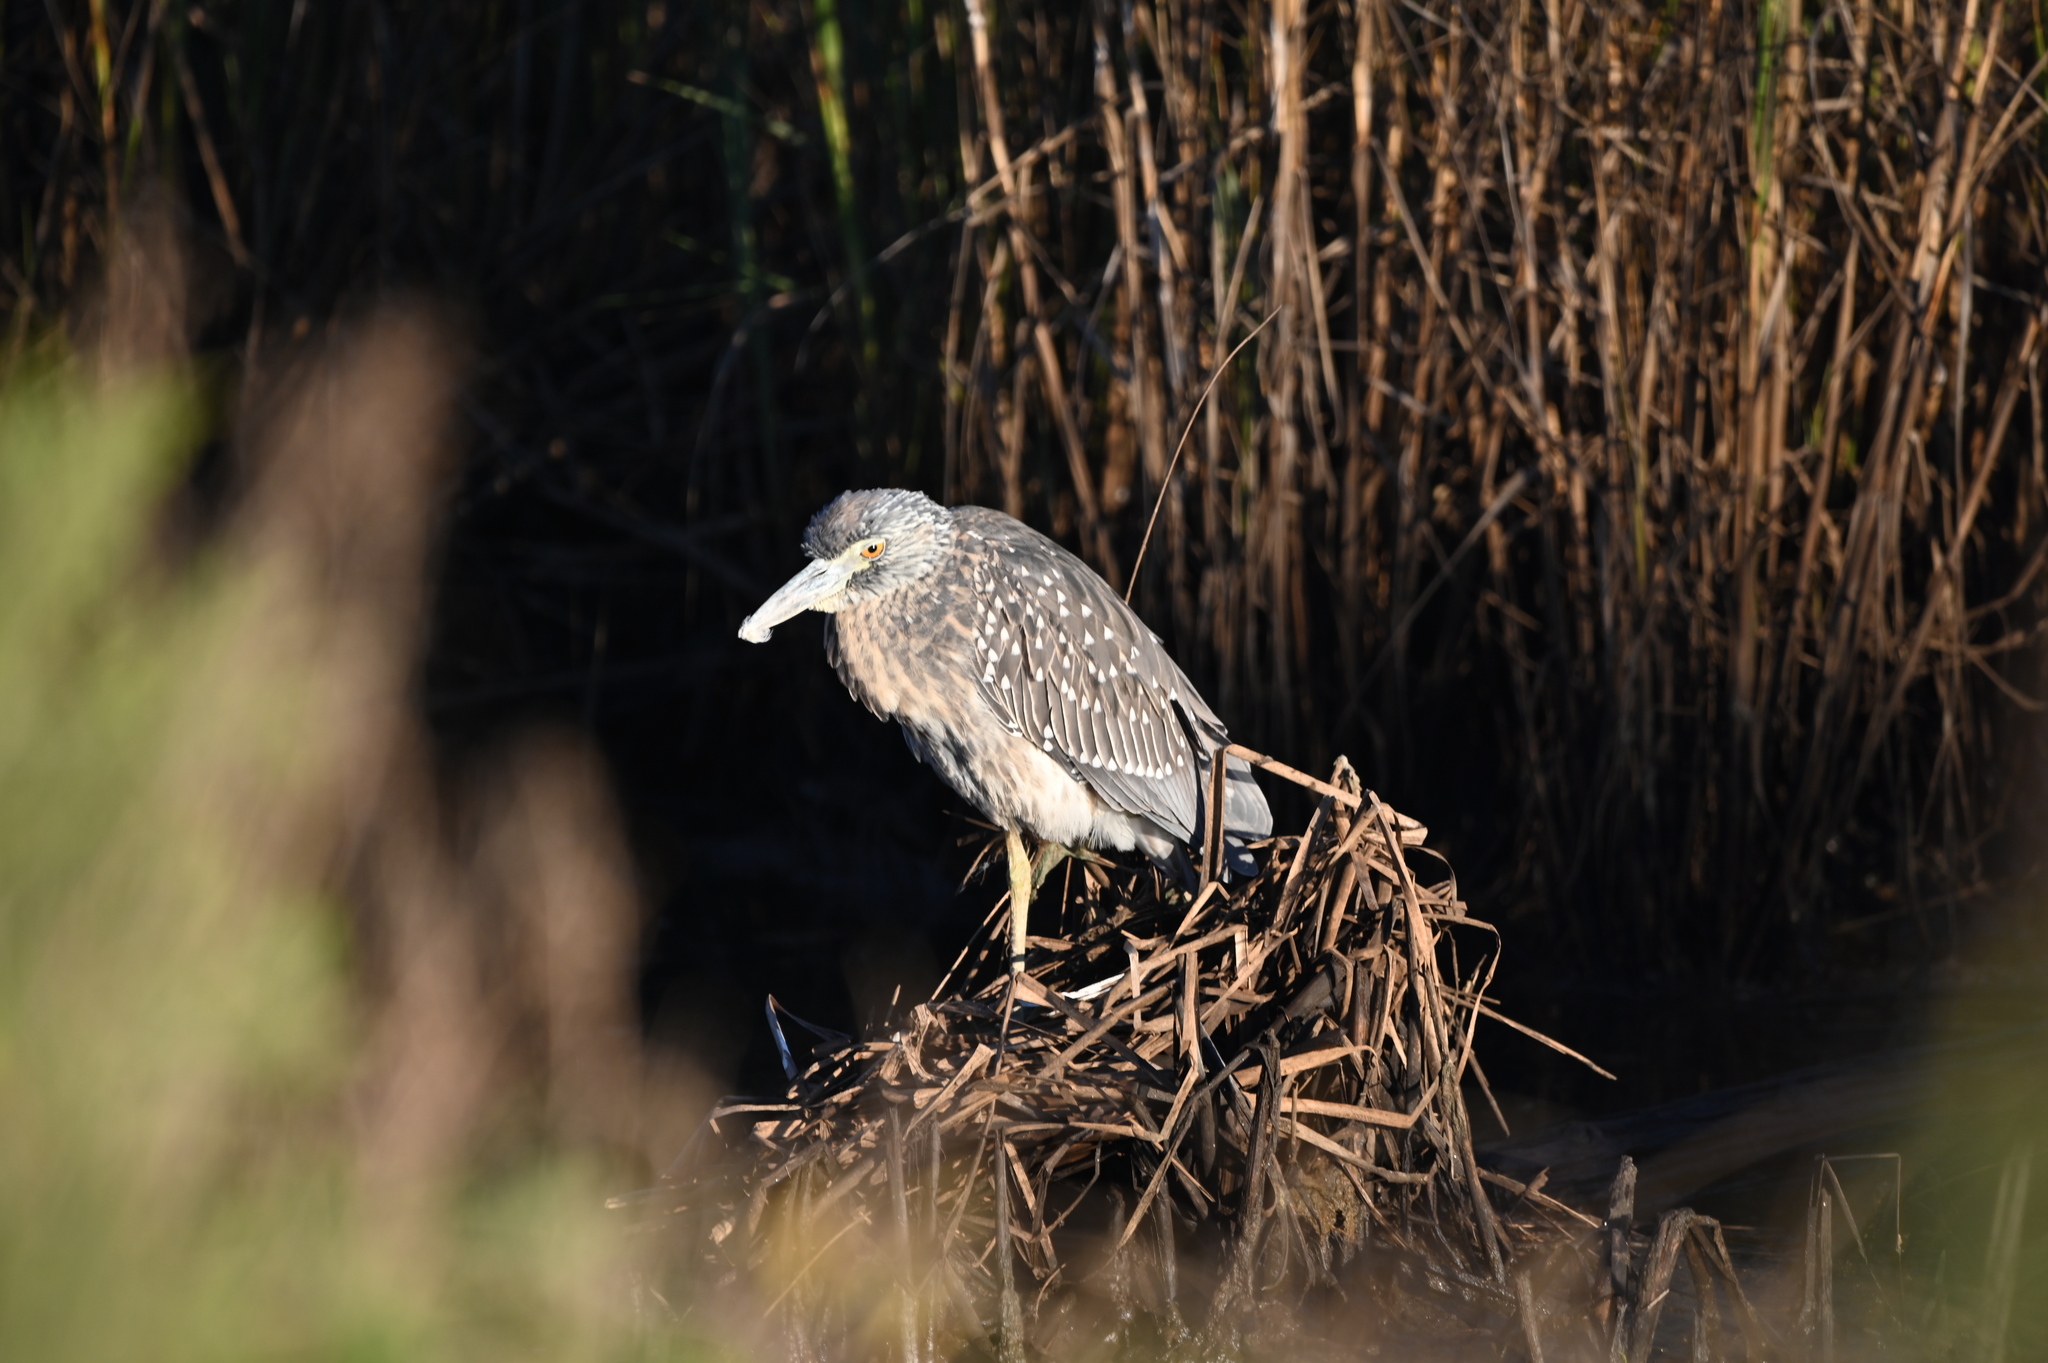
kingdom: Animalia
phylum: Chordata
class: Aves
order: Pelecaniformes
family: Ardeidae
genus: Nycticorax
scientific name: Nycticorax nycticorax
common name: Black-crowned night heron
